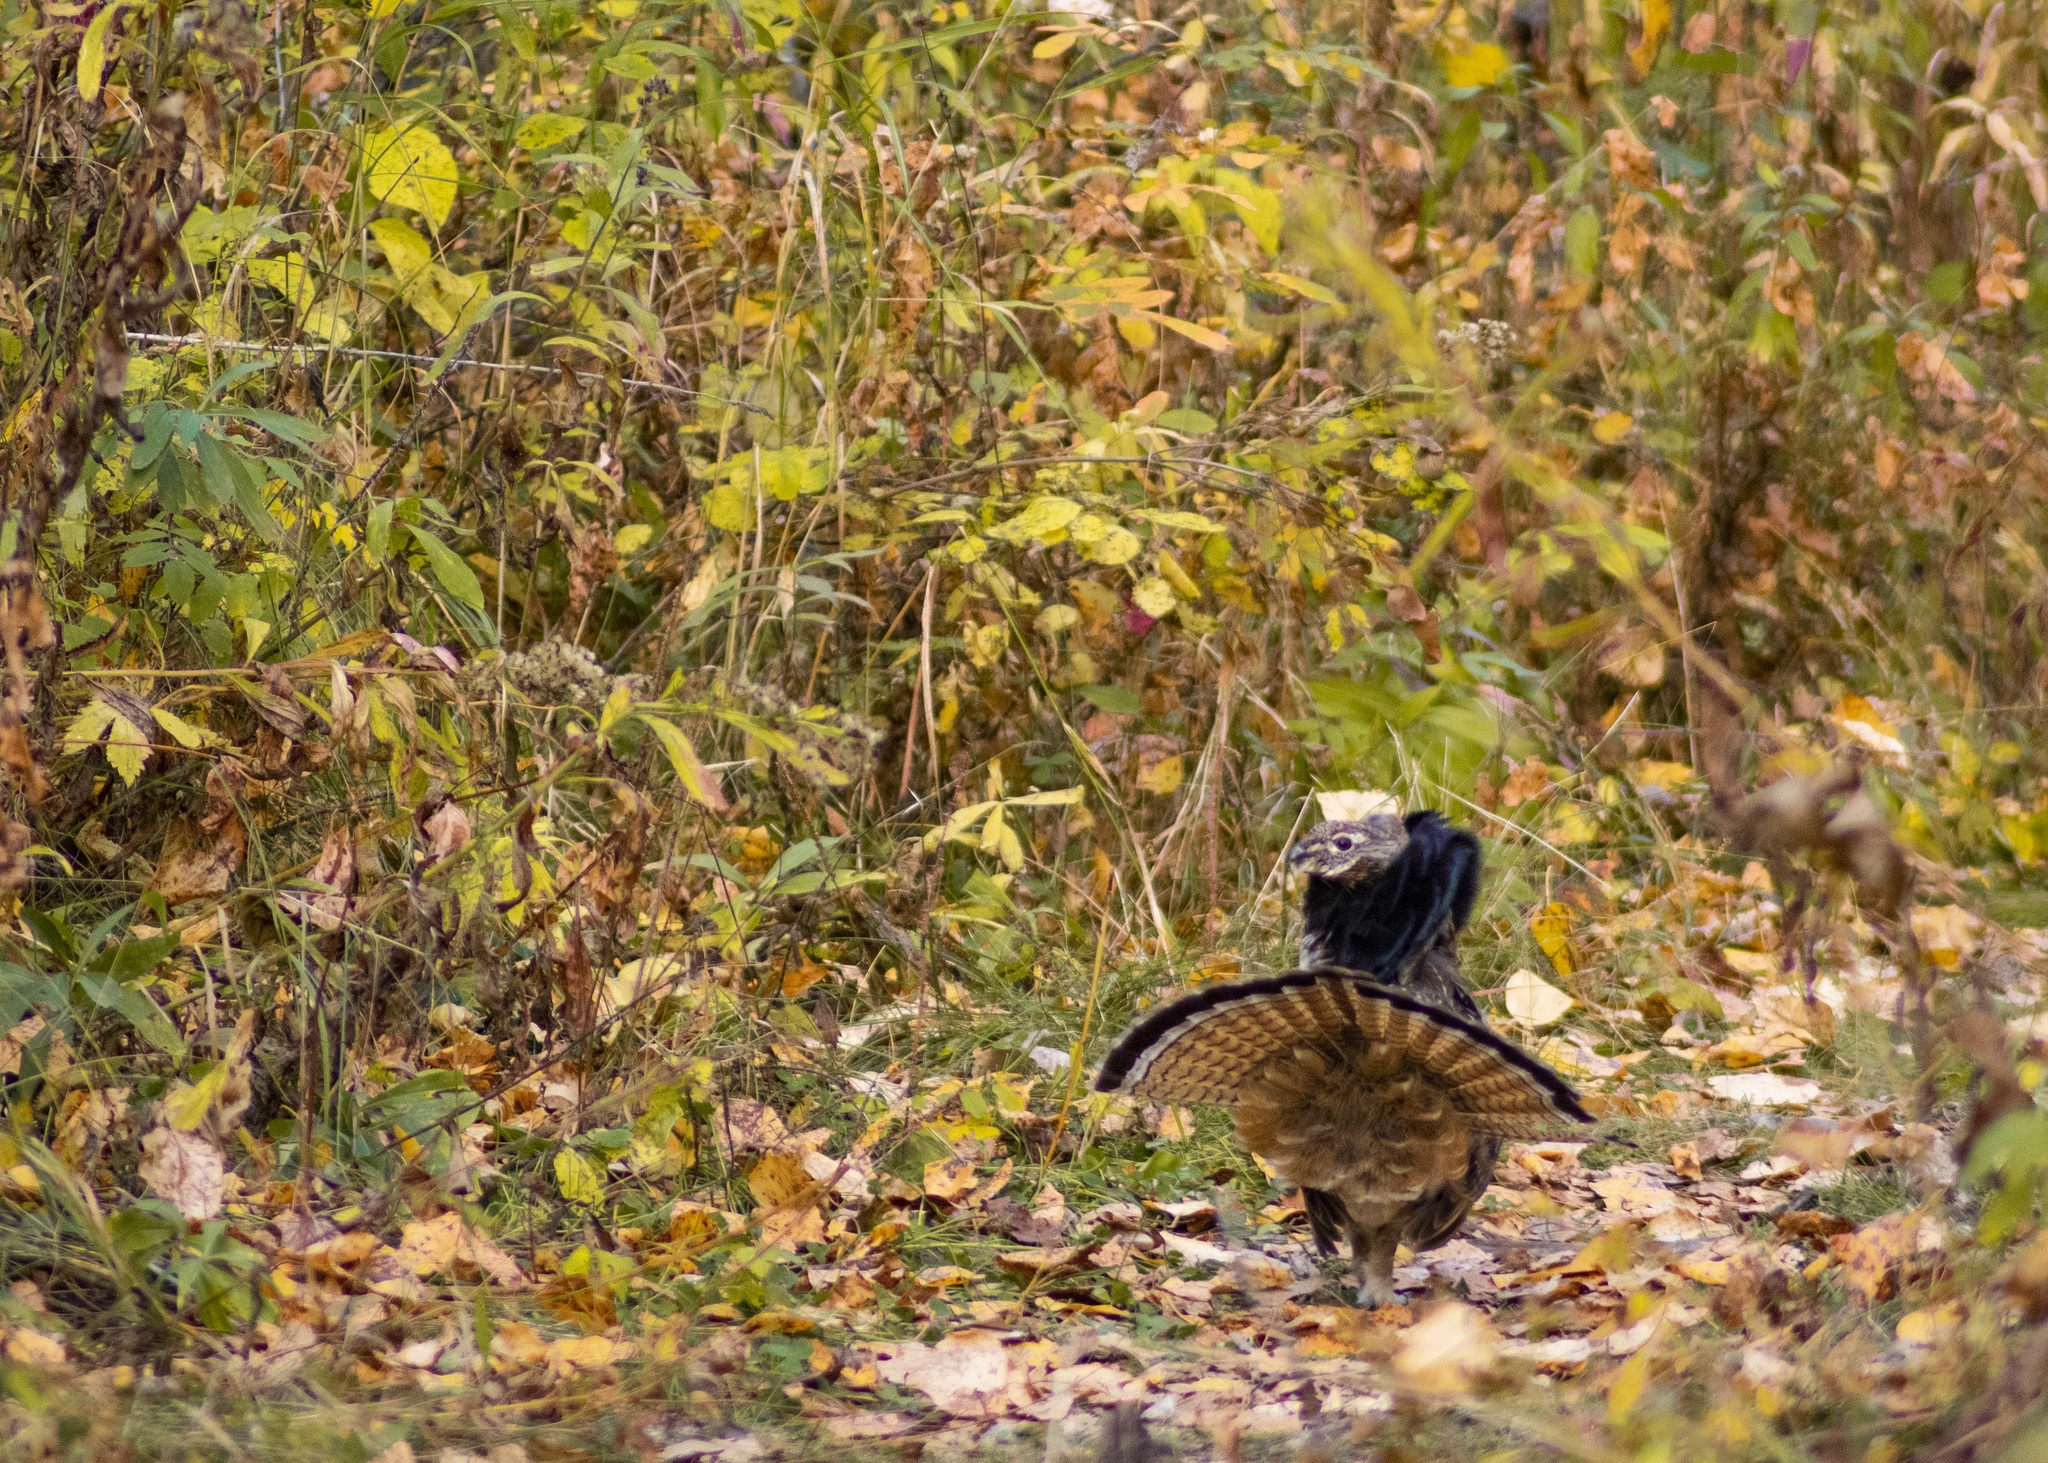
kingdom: Animalia
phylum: Chordata
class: Aves
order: Galliformes
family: Phasianidae
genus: Bonasa
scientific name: Bonasa umbellus
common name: Ruffed grouse
